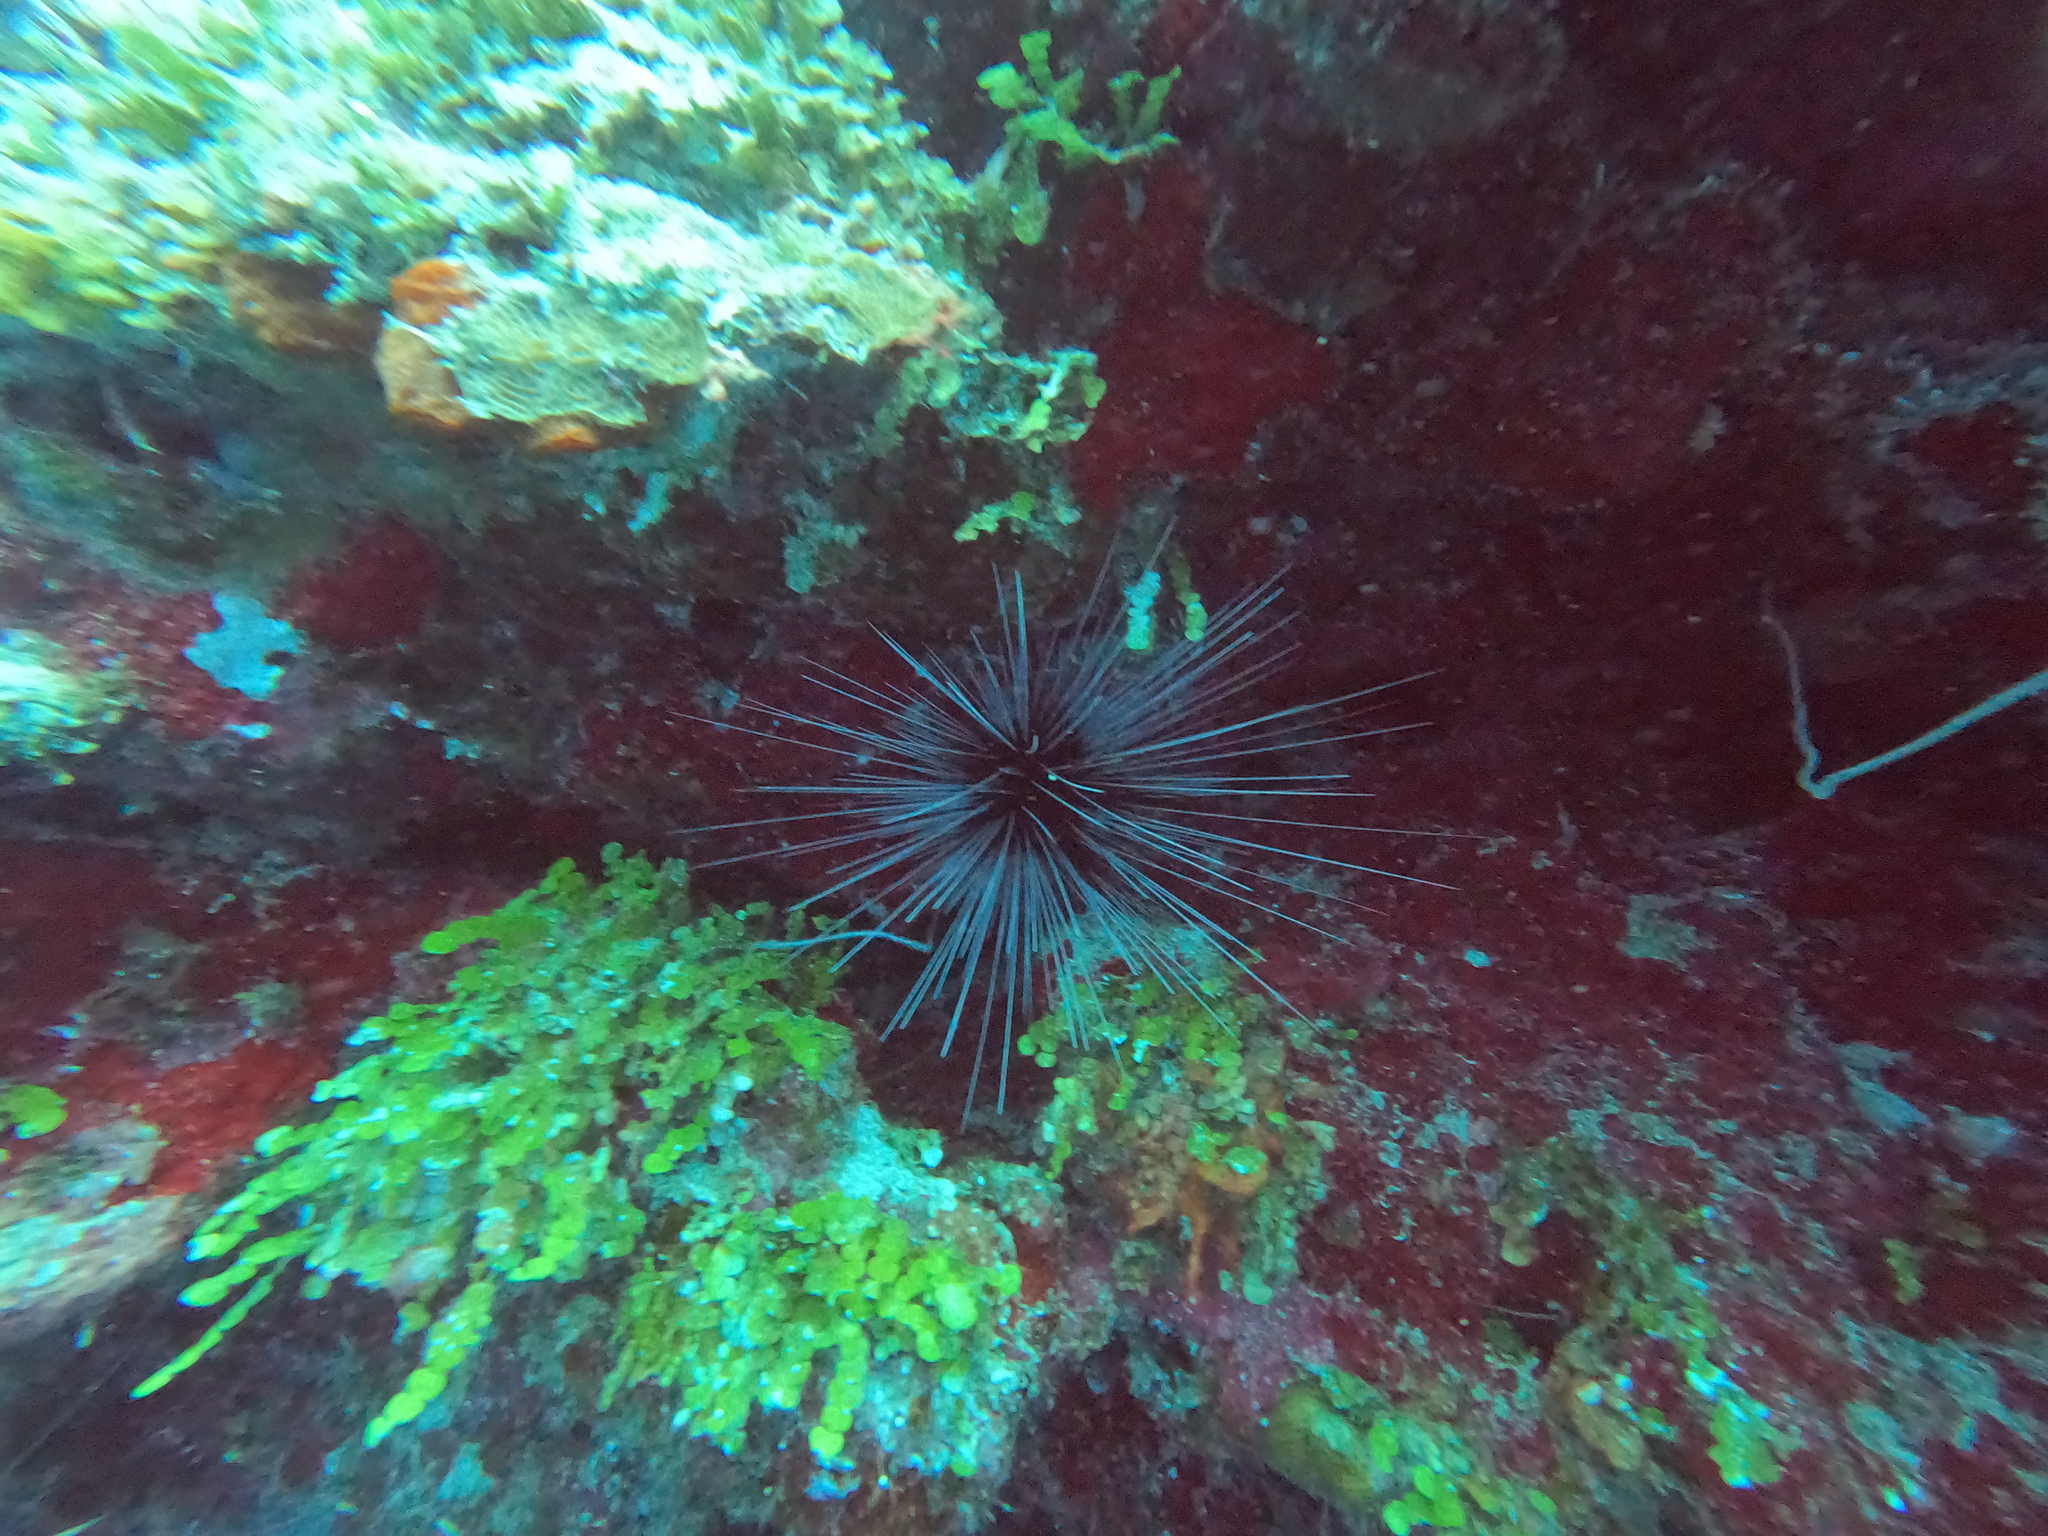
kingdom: Animalia
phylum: Echinodermata
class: Echinoidea
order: Diadematoida
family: Diadematidae
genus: Diadema
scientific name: Diadema antillarum
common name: Spiny urchin
